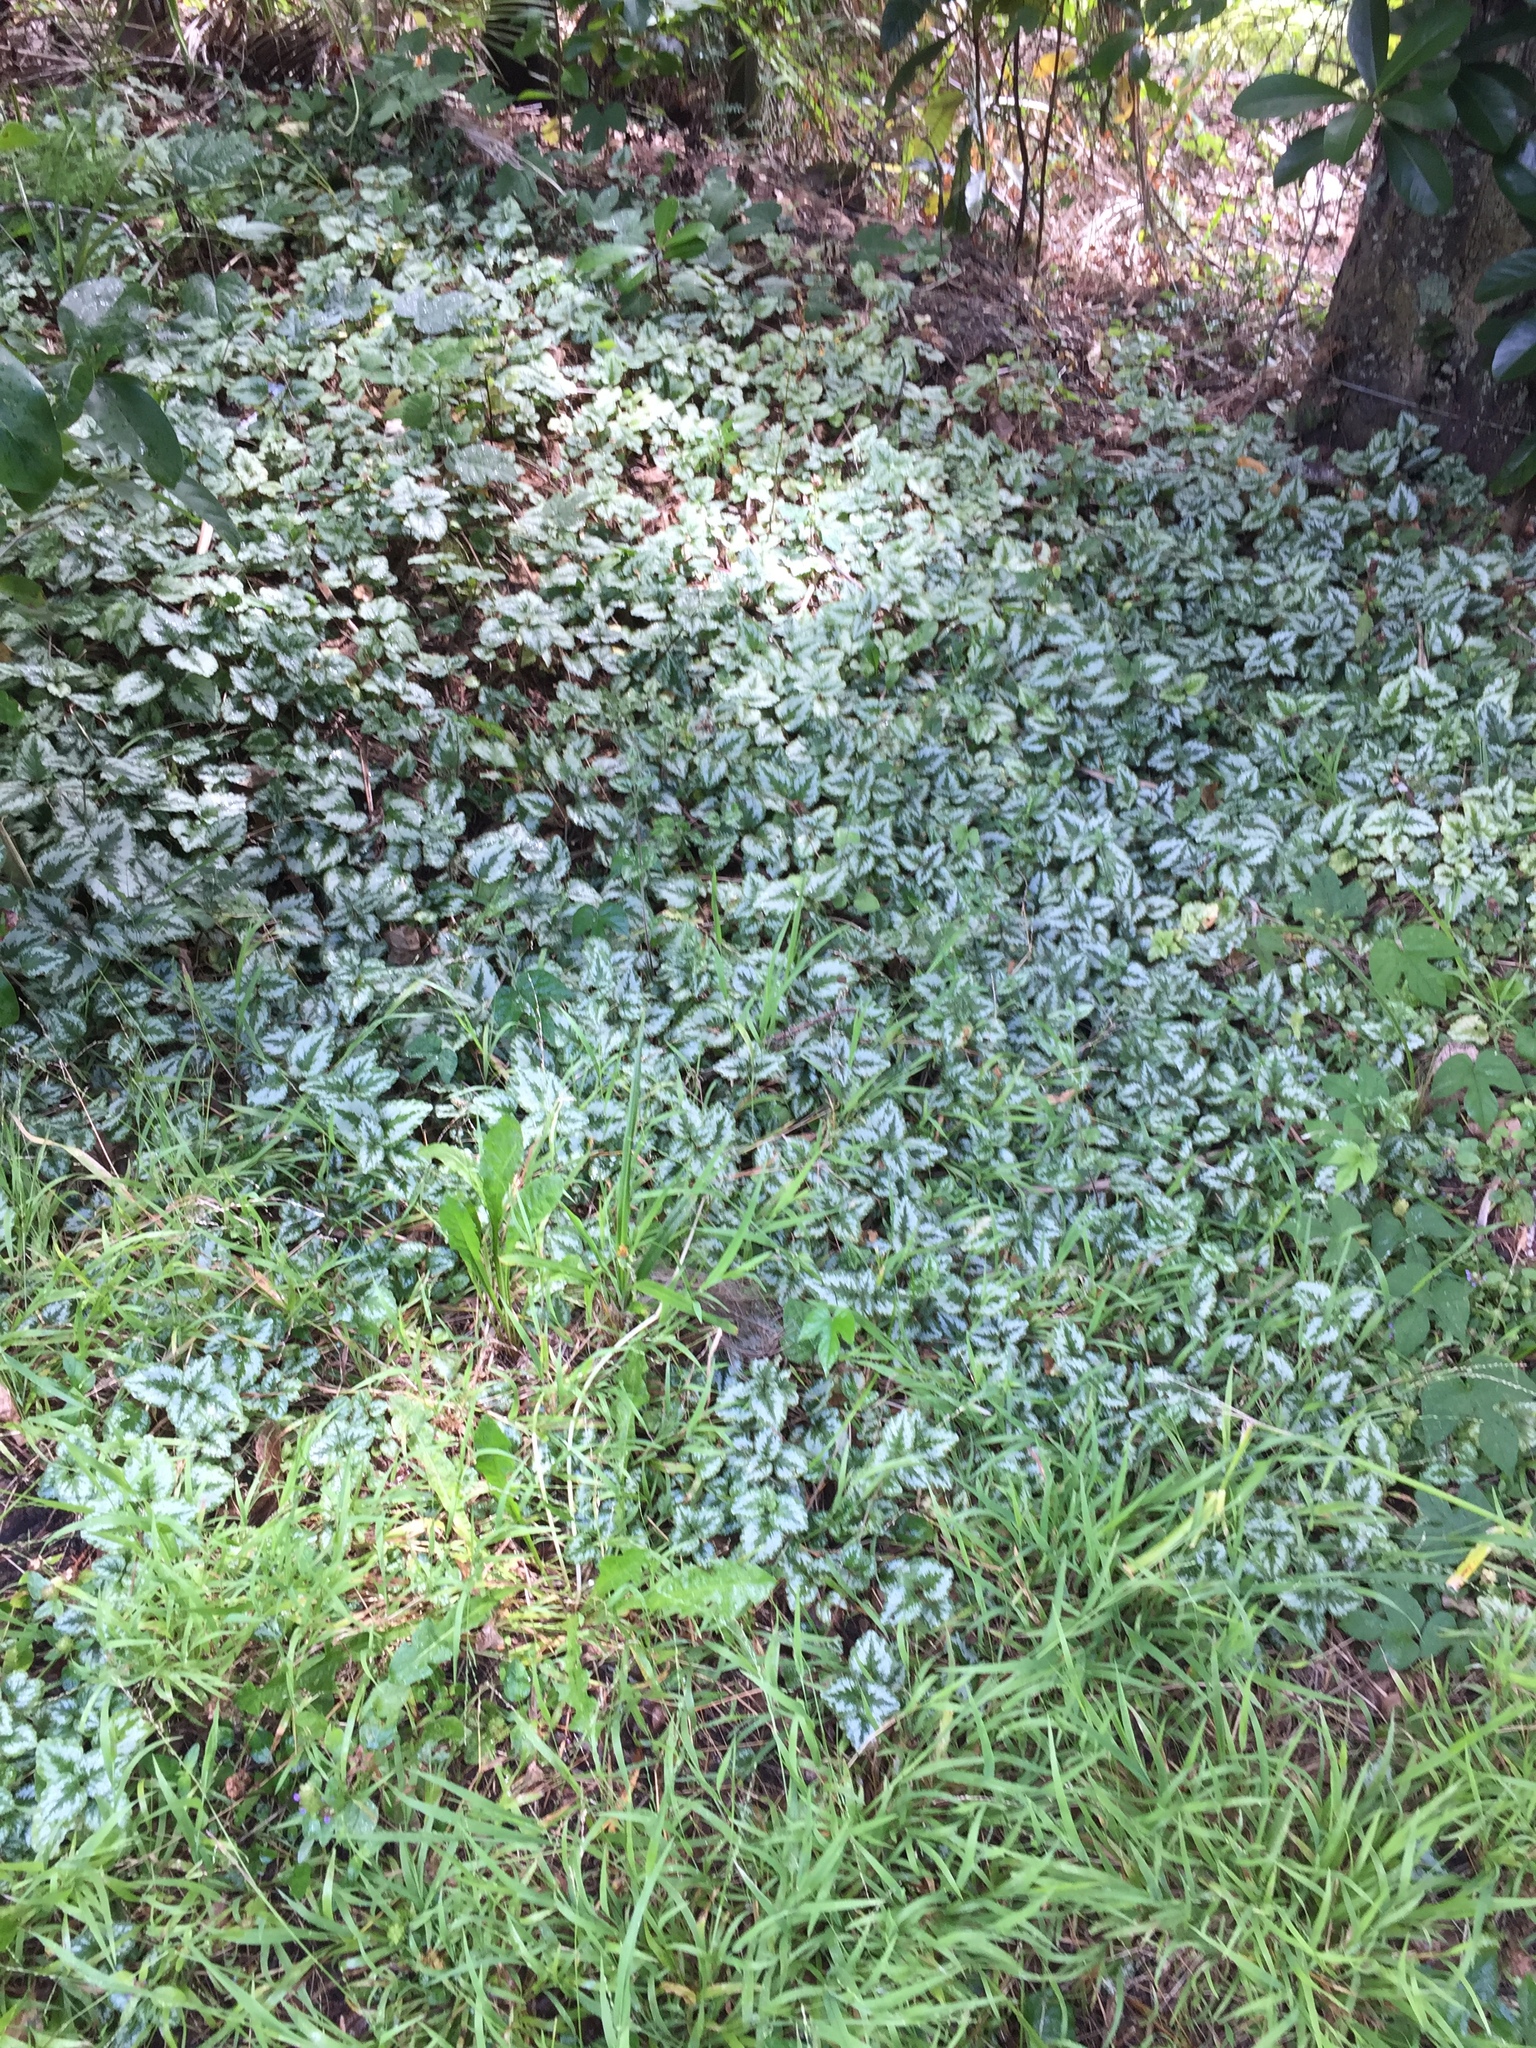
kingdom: Plantae
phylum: Tracheophyta
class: Magnoliopsida
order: Lamiales
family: Lamiaceae
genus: Lamium
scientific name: Lamium galeobdolon
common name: Yellow archangel
